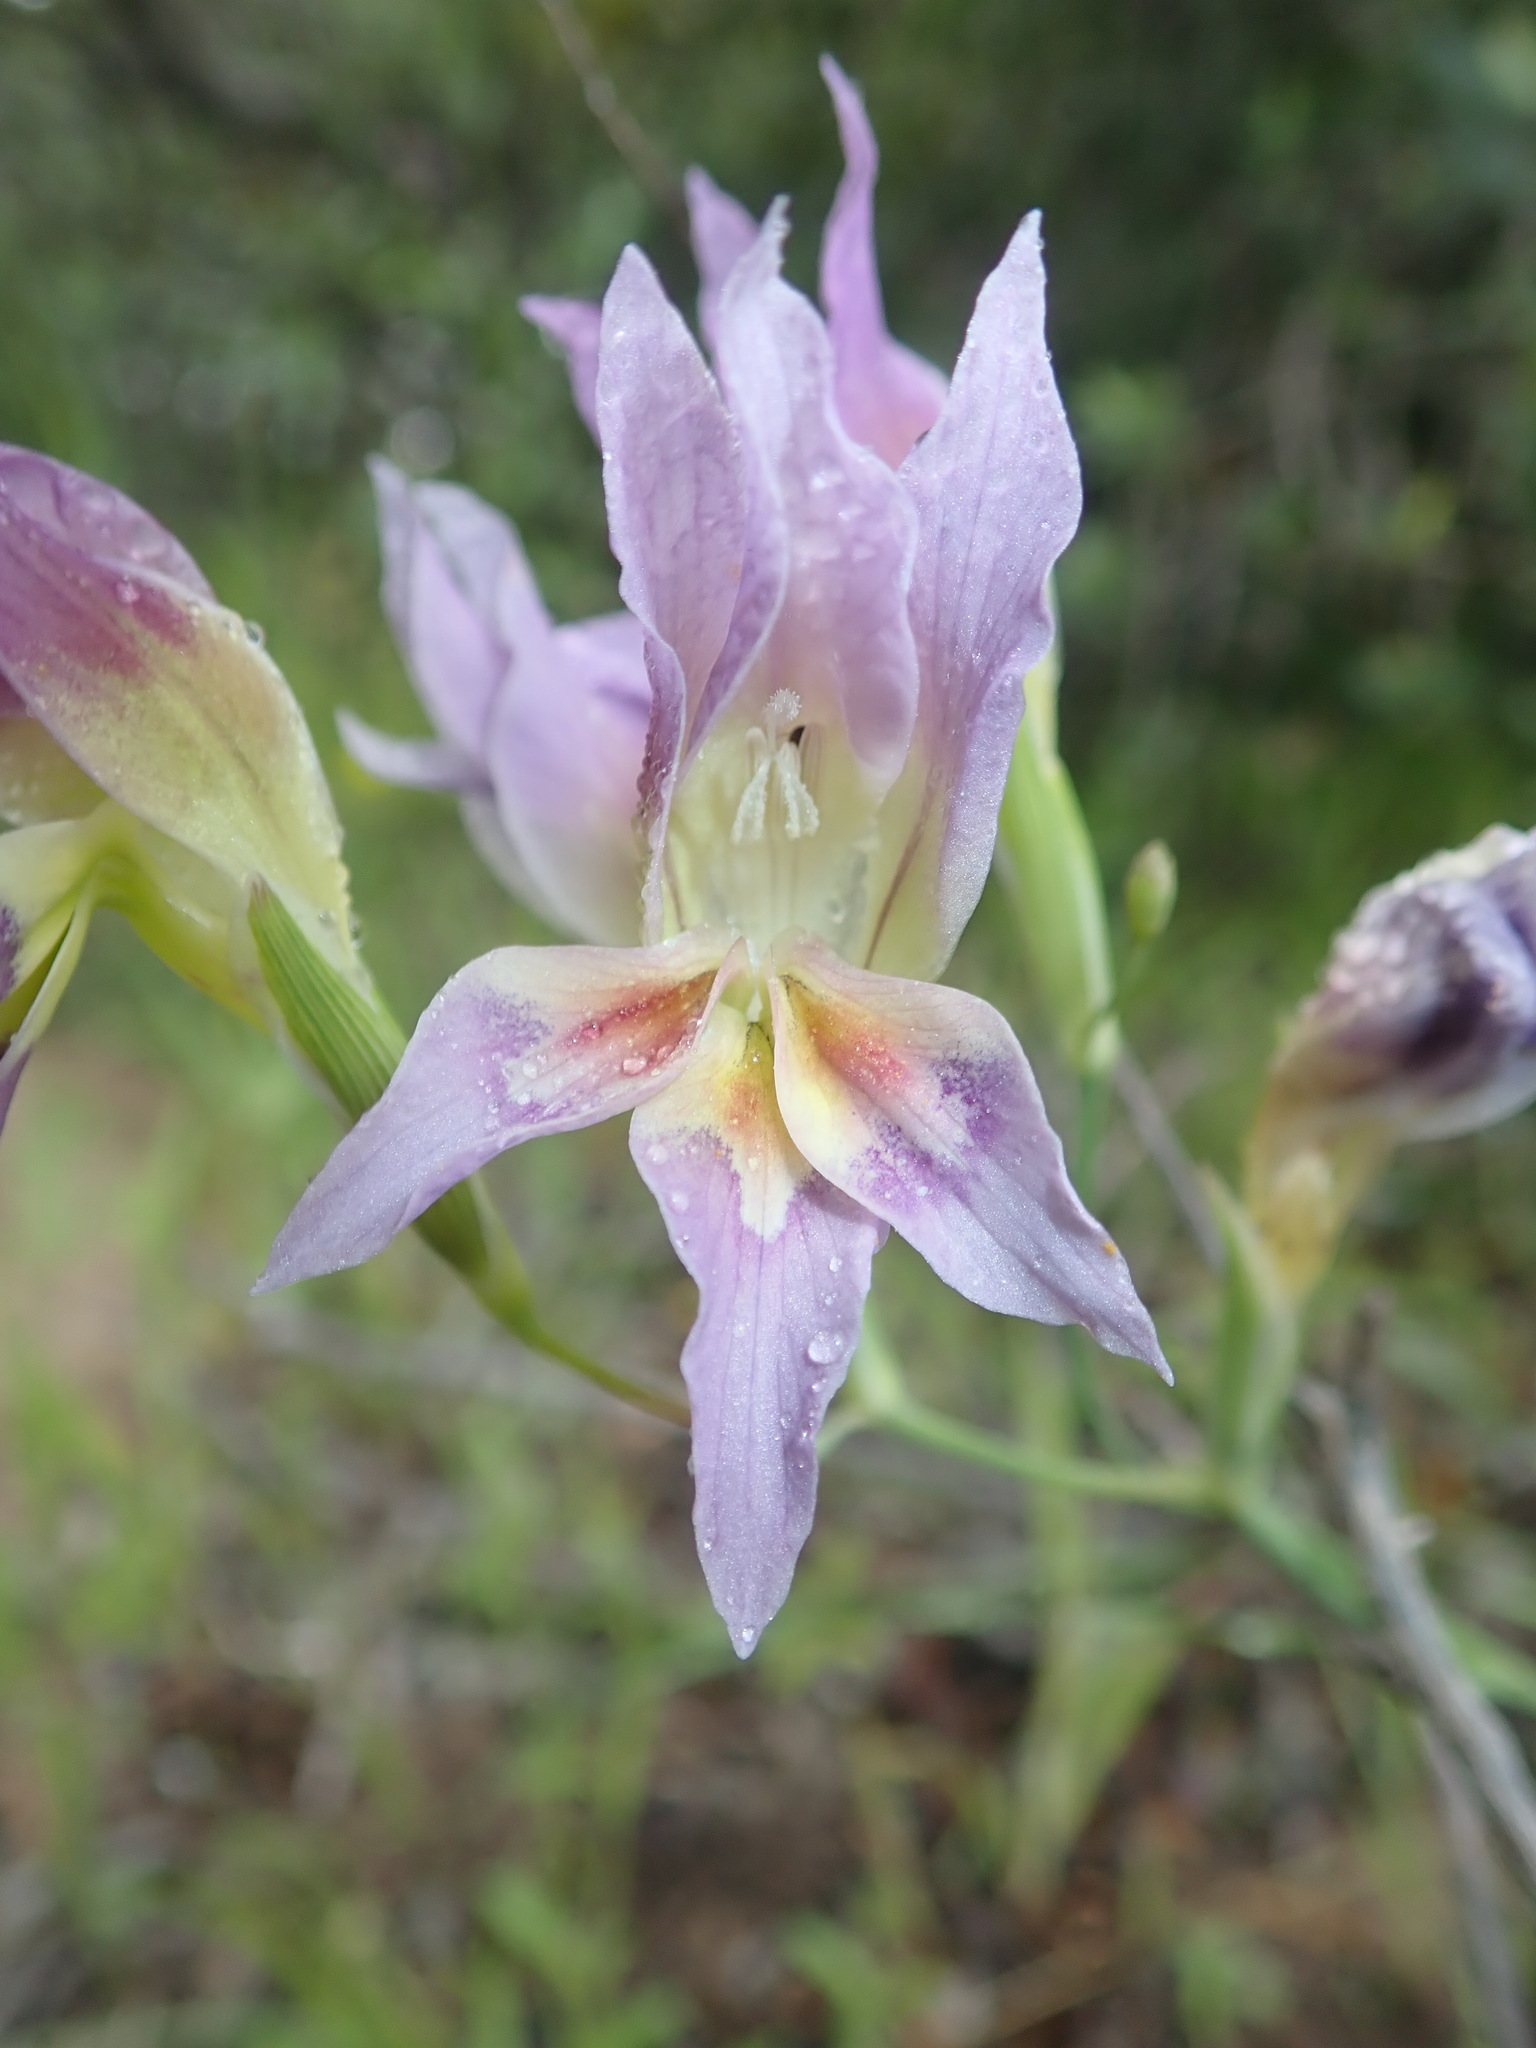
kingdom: Plantae
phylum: Tracheophyta
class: Liliopsida
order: Asparagales
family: Iridaceae
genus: Gladiolus
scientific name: Gladiolus venustus
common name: Purple kalkoentjie
